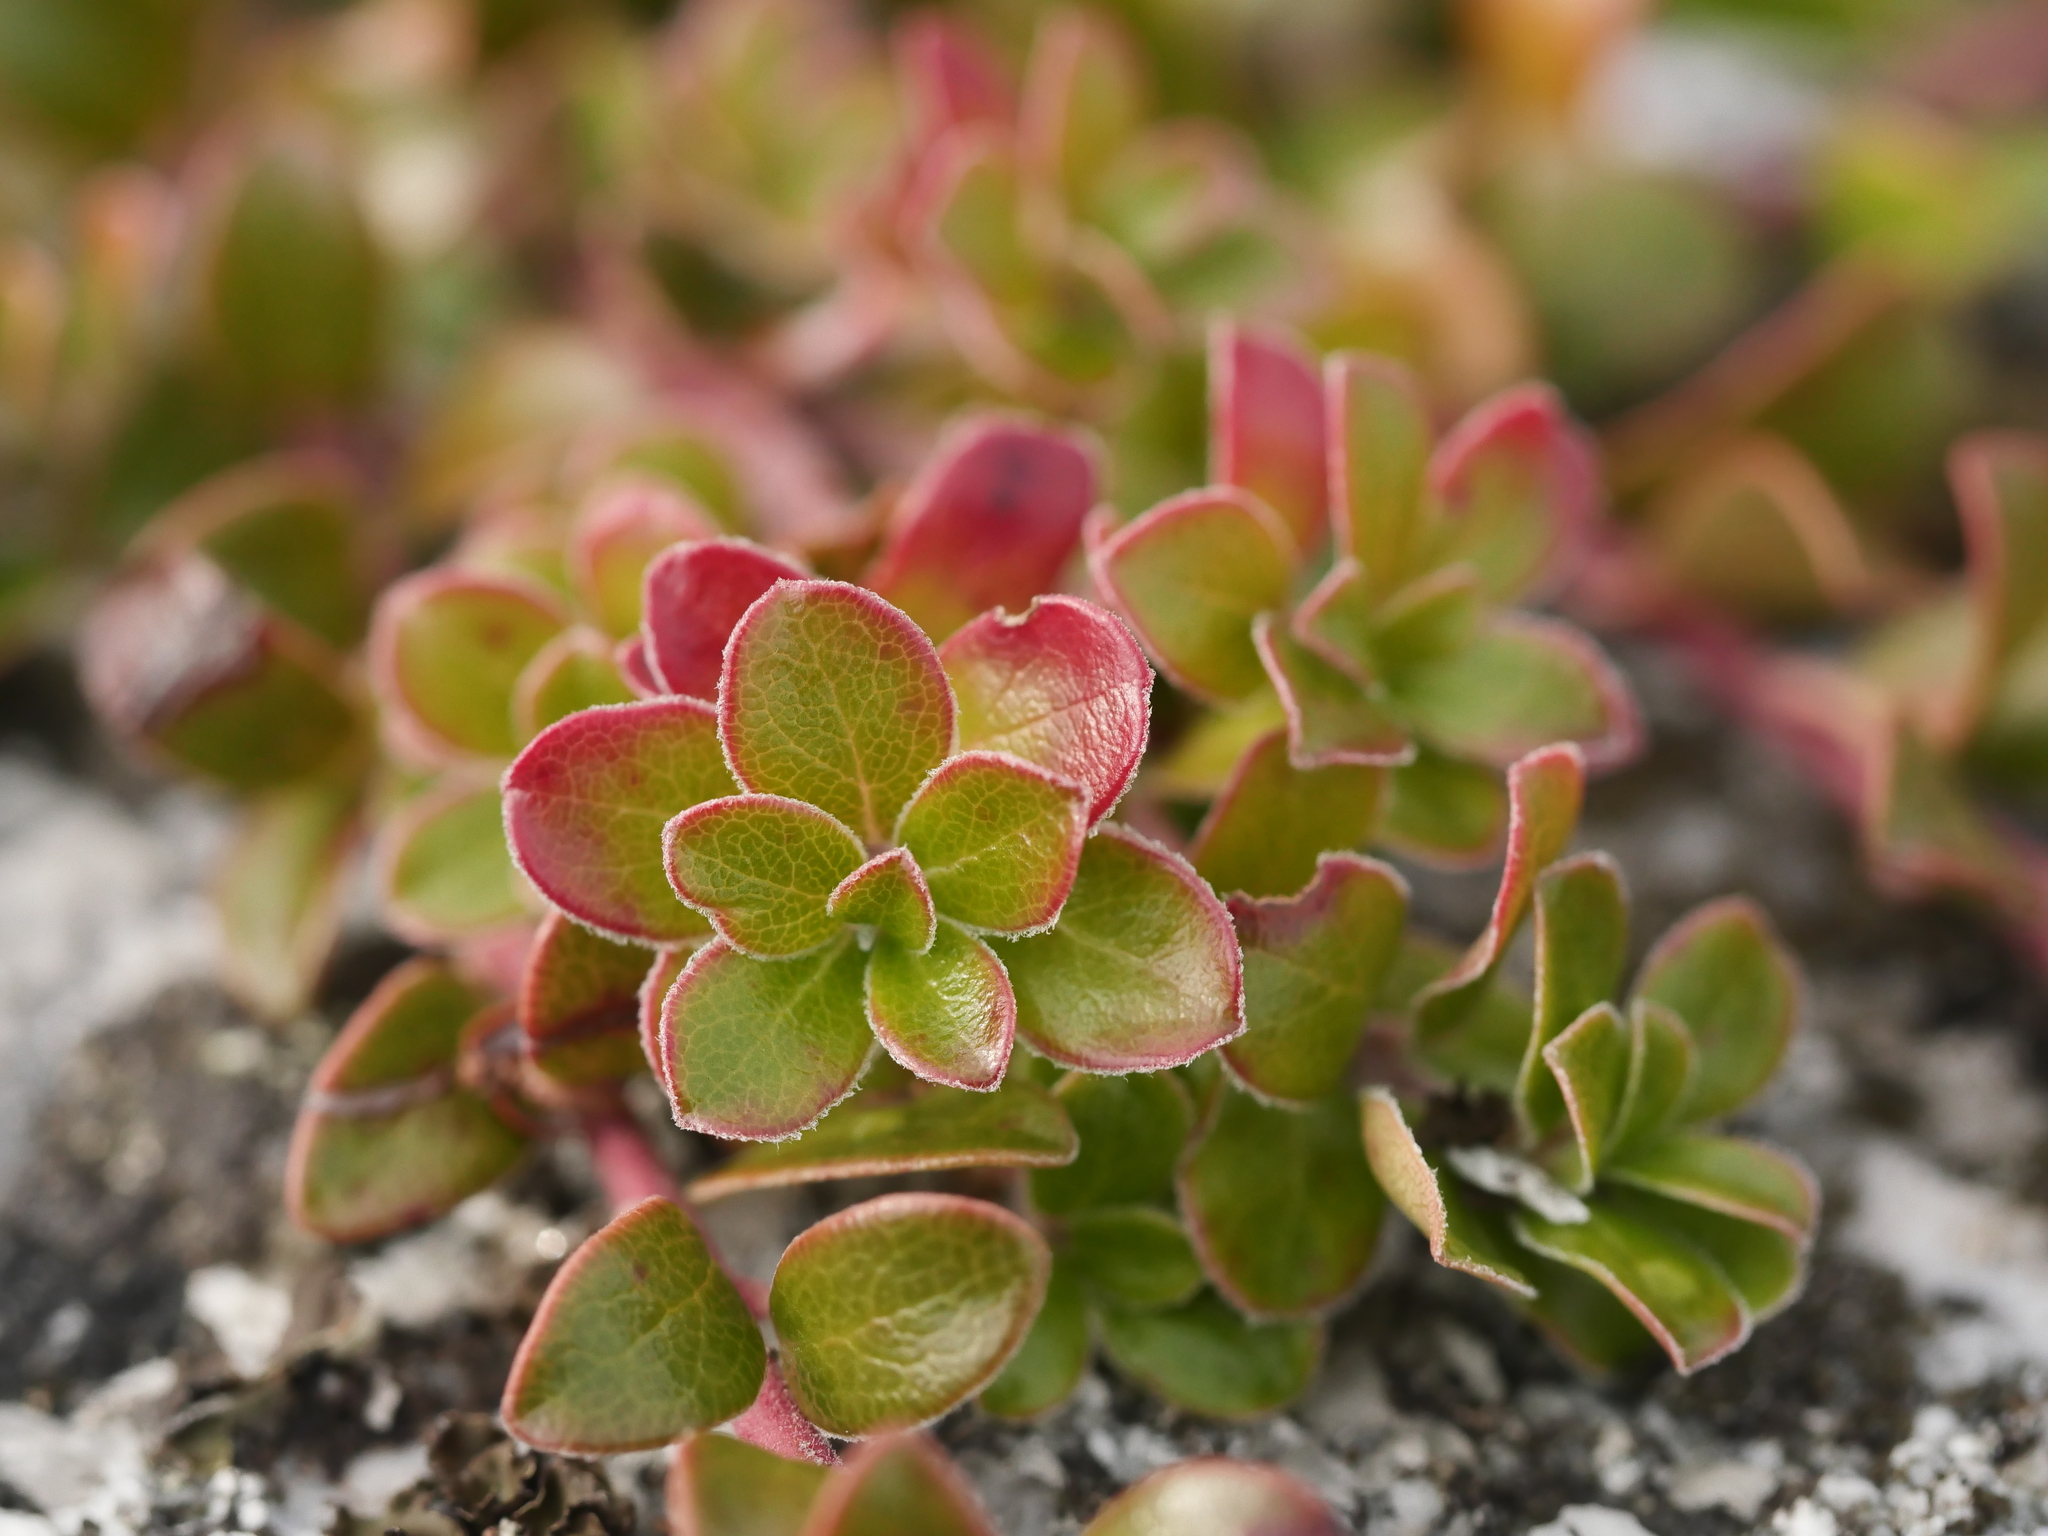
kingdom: Plantae
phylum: Tracheophyta
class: Magnoliopsida
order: Ericales
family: Ericaceae
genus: Arctostaphylos
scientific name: Arctostaphylos uva-ursi
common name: Bearberry
